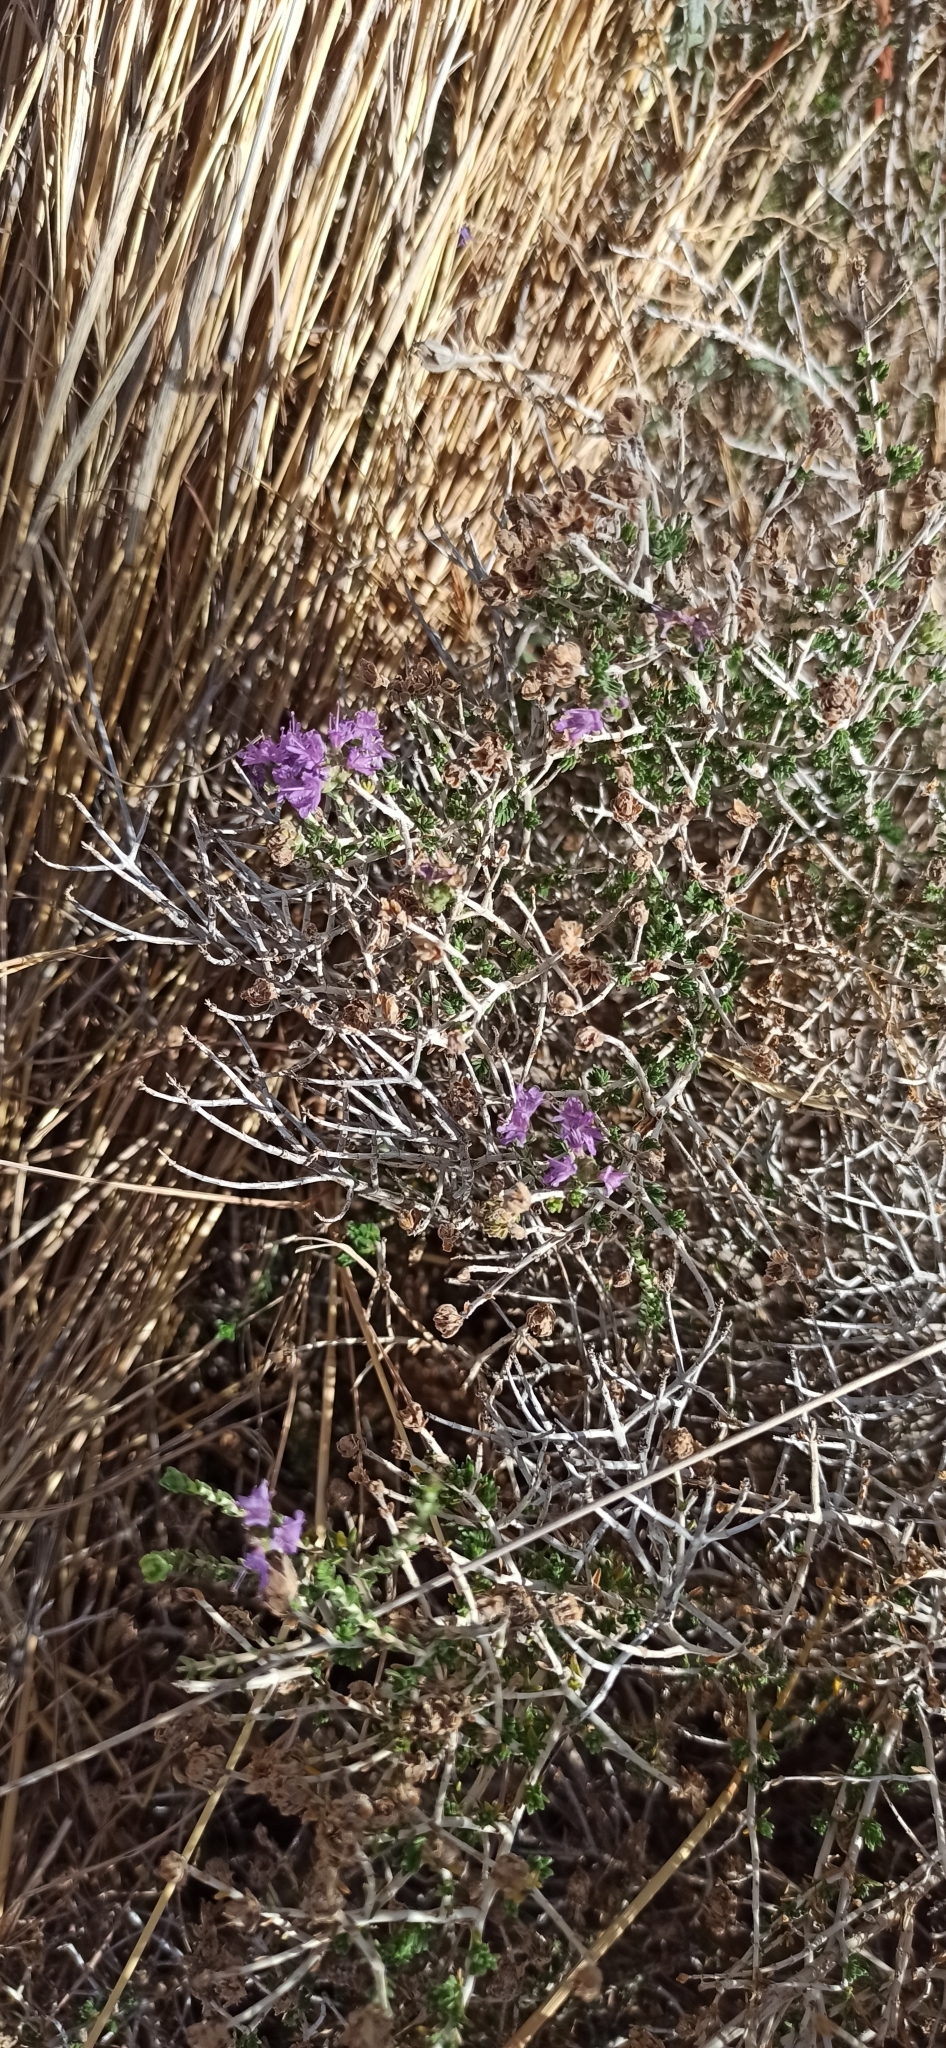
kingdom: Plantae
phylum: Tracheophyta
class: Magnoliopsida
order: Lamiales
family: Lamiaceae
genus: Thymbra
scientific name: Thymbra capitata
